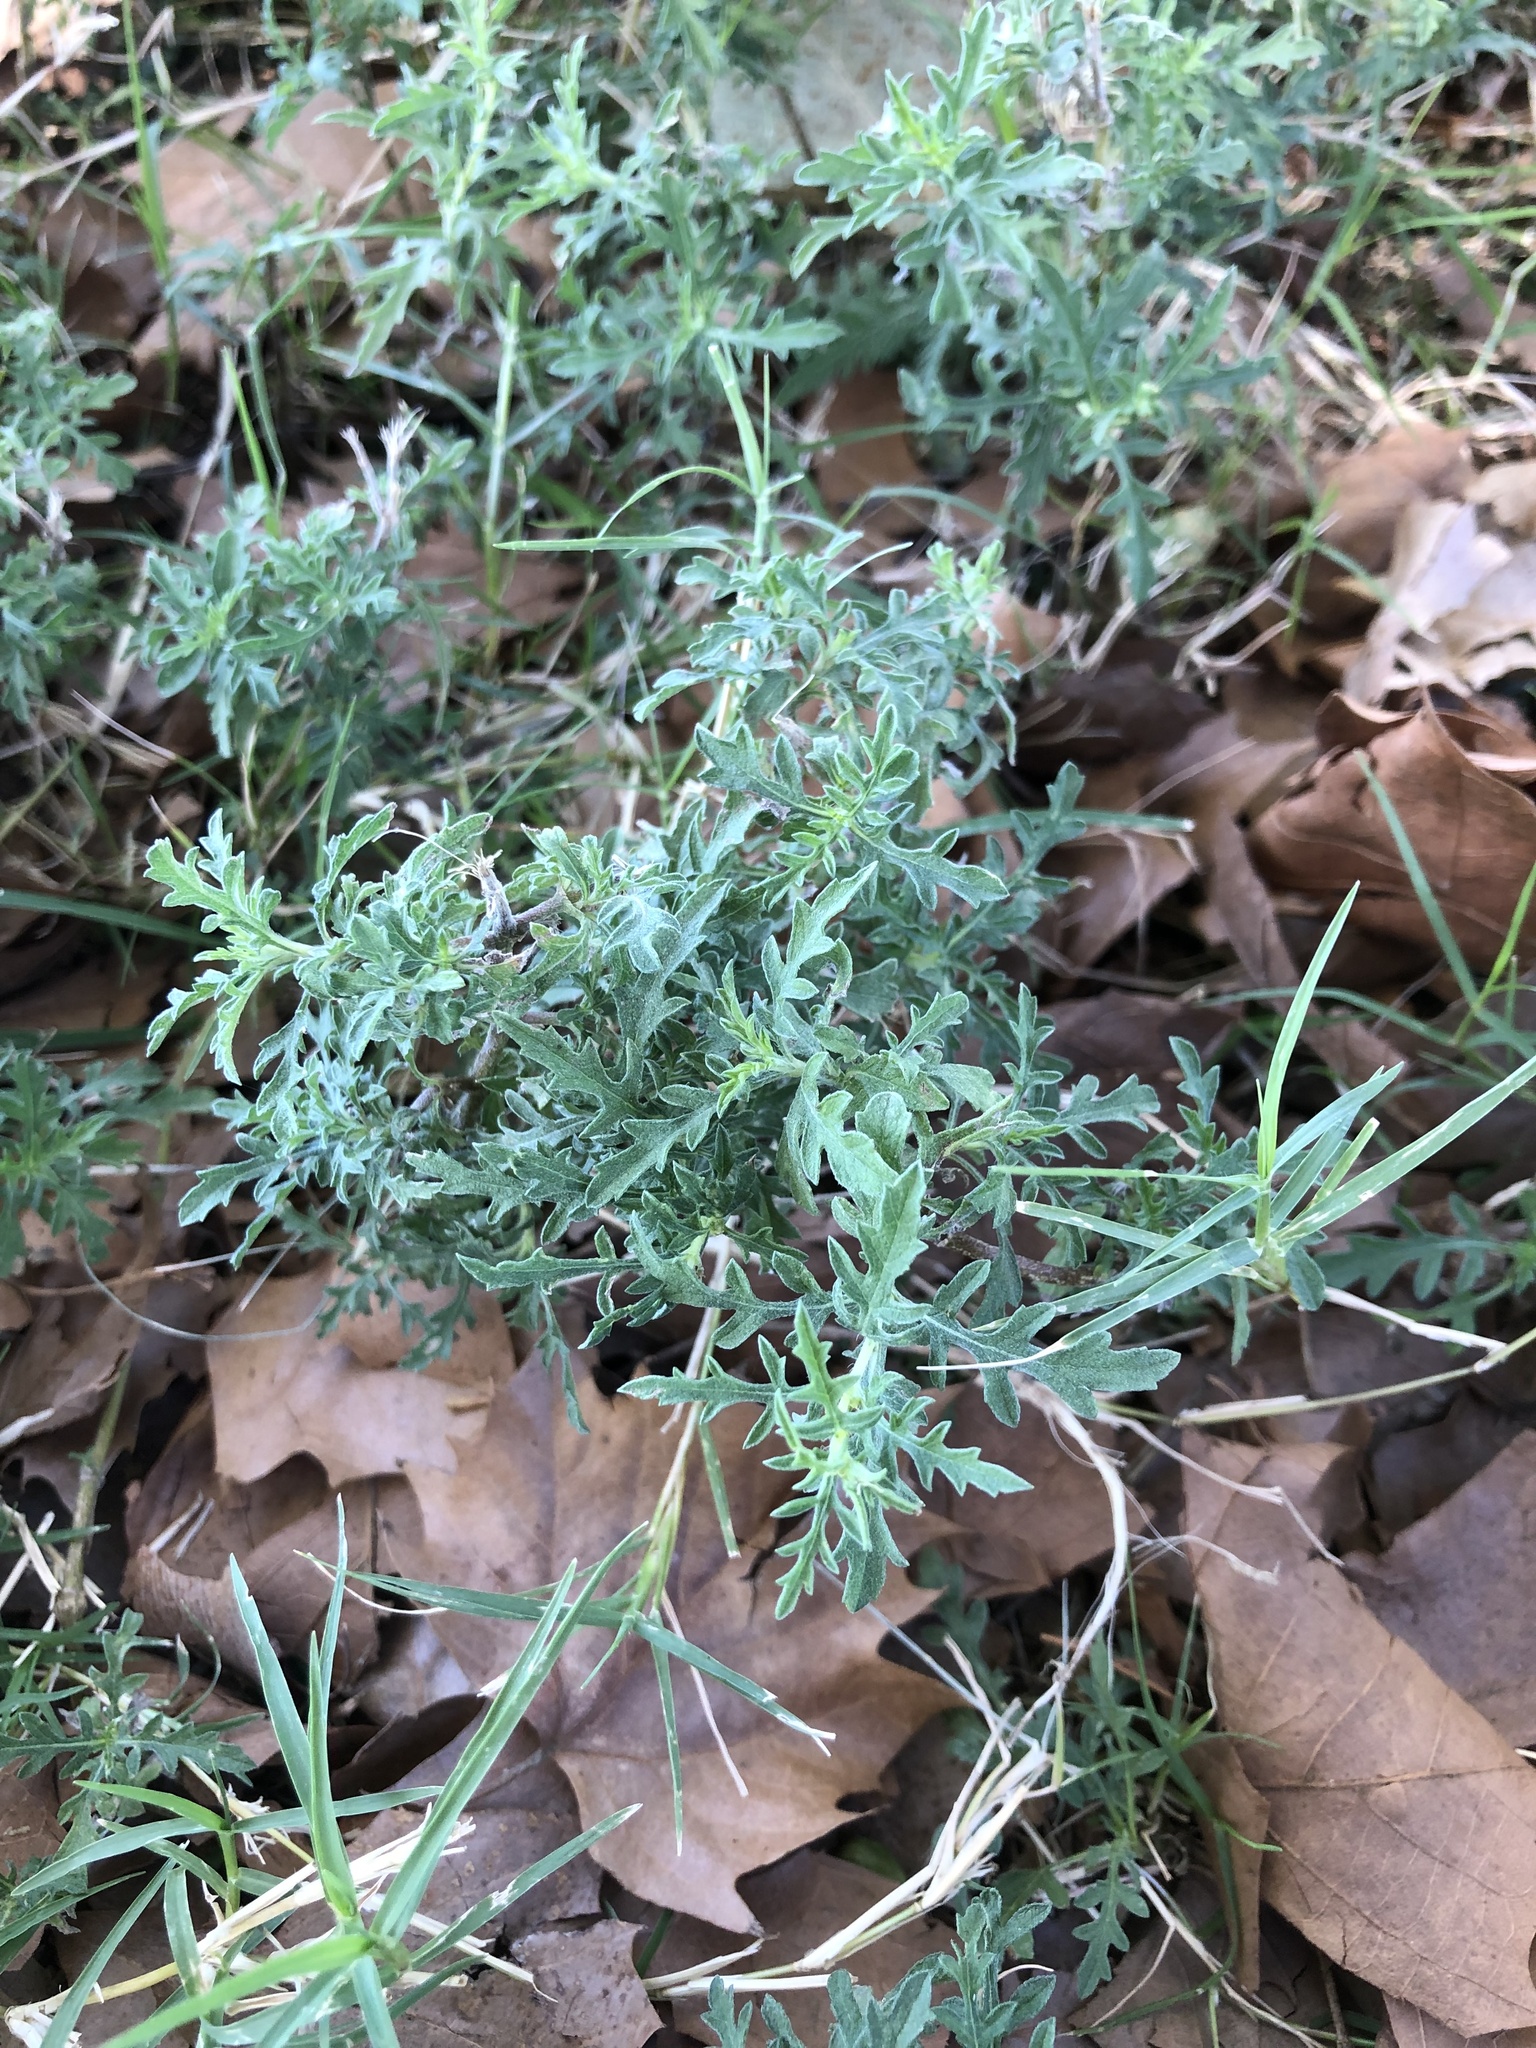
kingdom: Plantae
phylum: Tracheophyta
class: Magnoliopsida
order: Asterales
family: Asteraceae
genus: Ambrosia
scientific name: Ambrosia psilostachya
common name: Perennial ragweed
